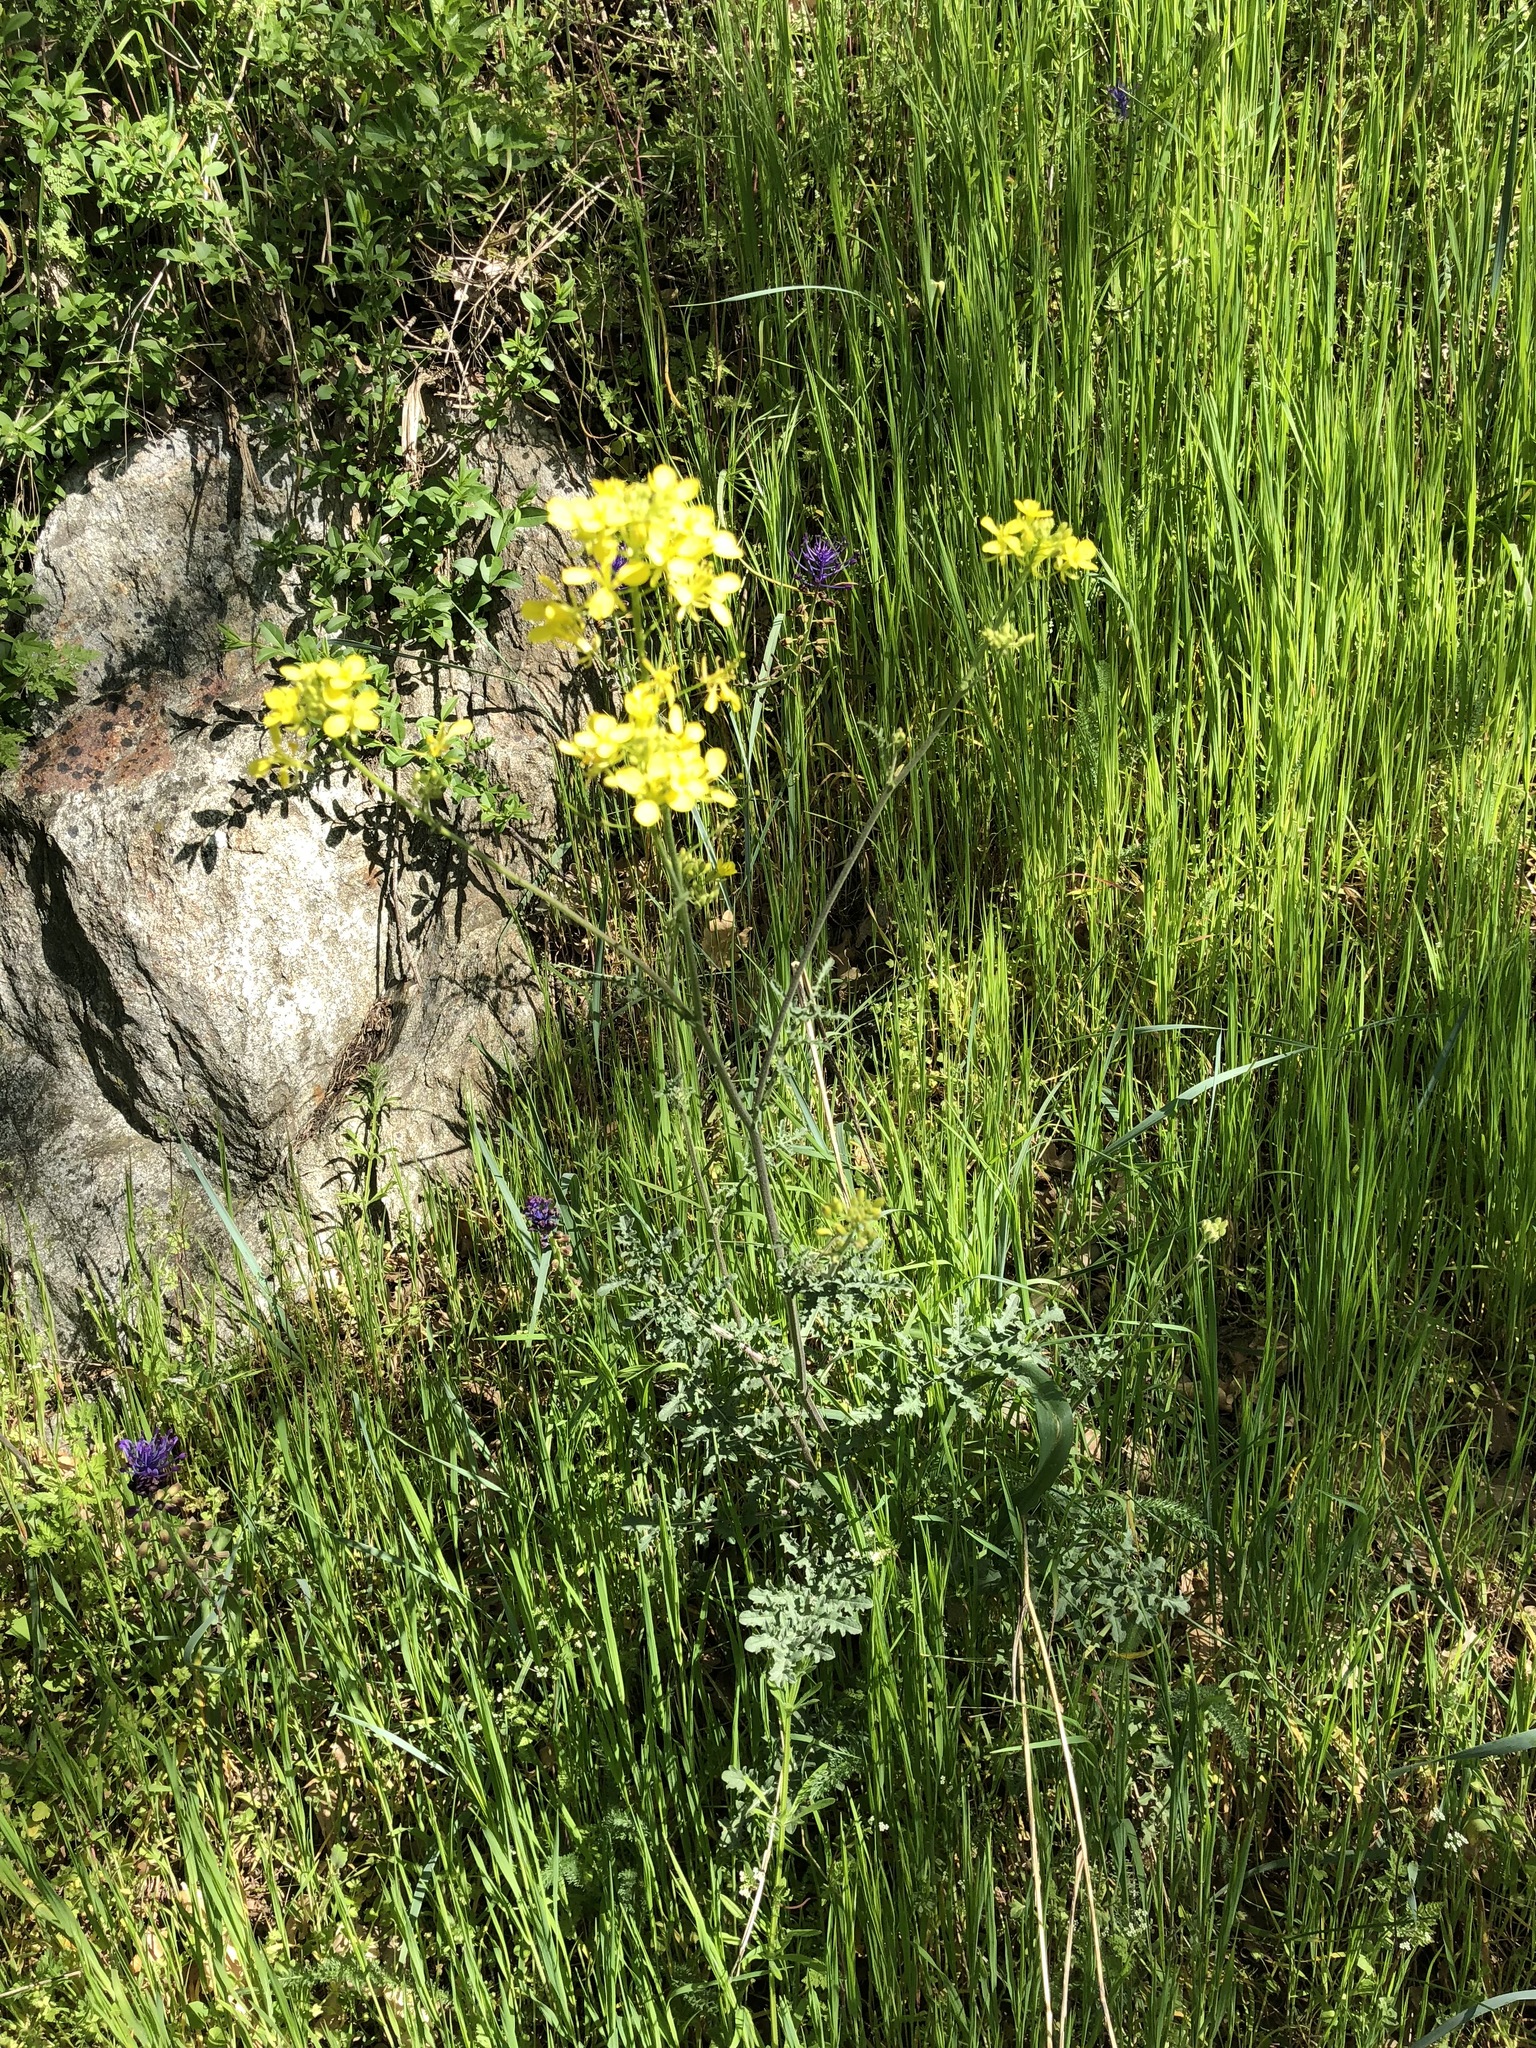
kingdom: Plantae
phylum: Tracheophyta
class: Magnoliopsida
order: Brassicales
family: Brassicaceae
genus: Erucastrum
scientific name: Erucastrum nasturtiifolium
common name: Watercress-leaf rocket
